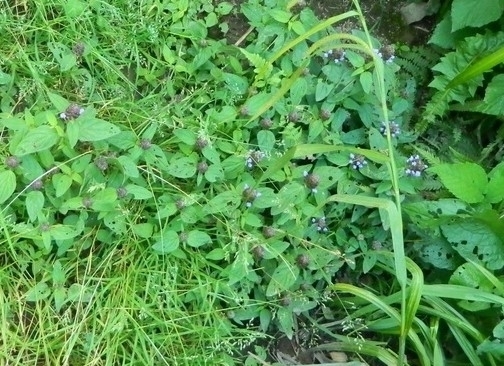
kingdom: Plantae
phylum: Tracheophyta
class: Magnoliopsida
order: Lamiales
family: Lamiaceae
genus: Prunella
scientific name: Prunella vulgaris
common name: Heal-all
